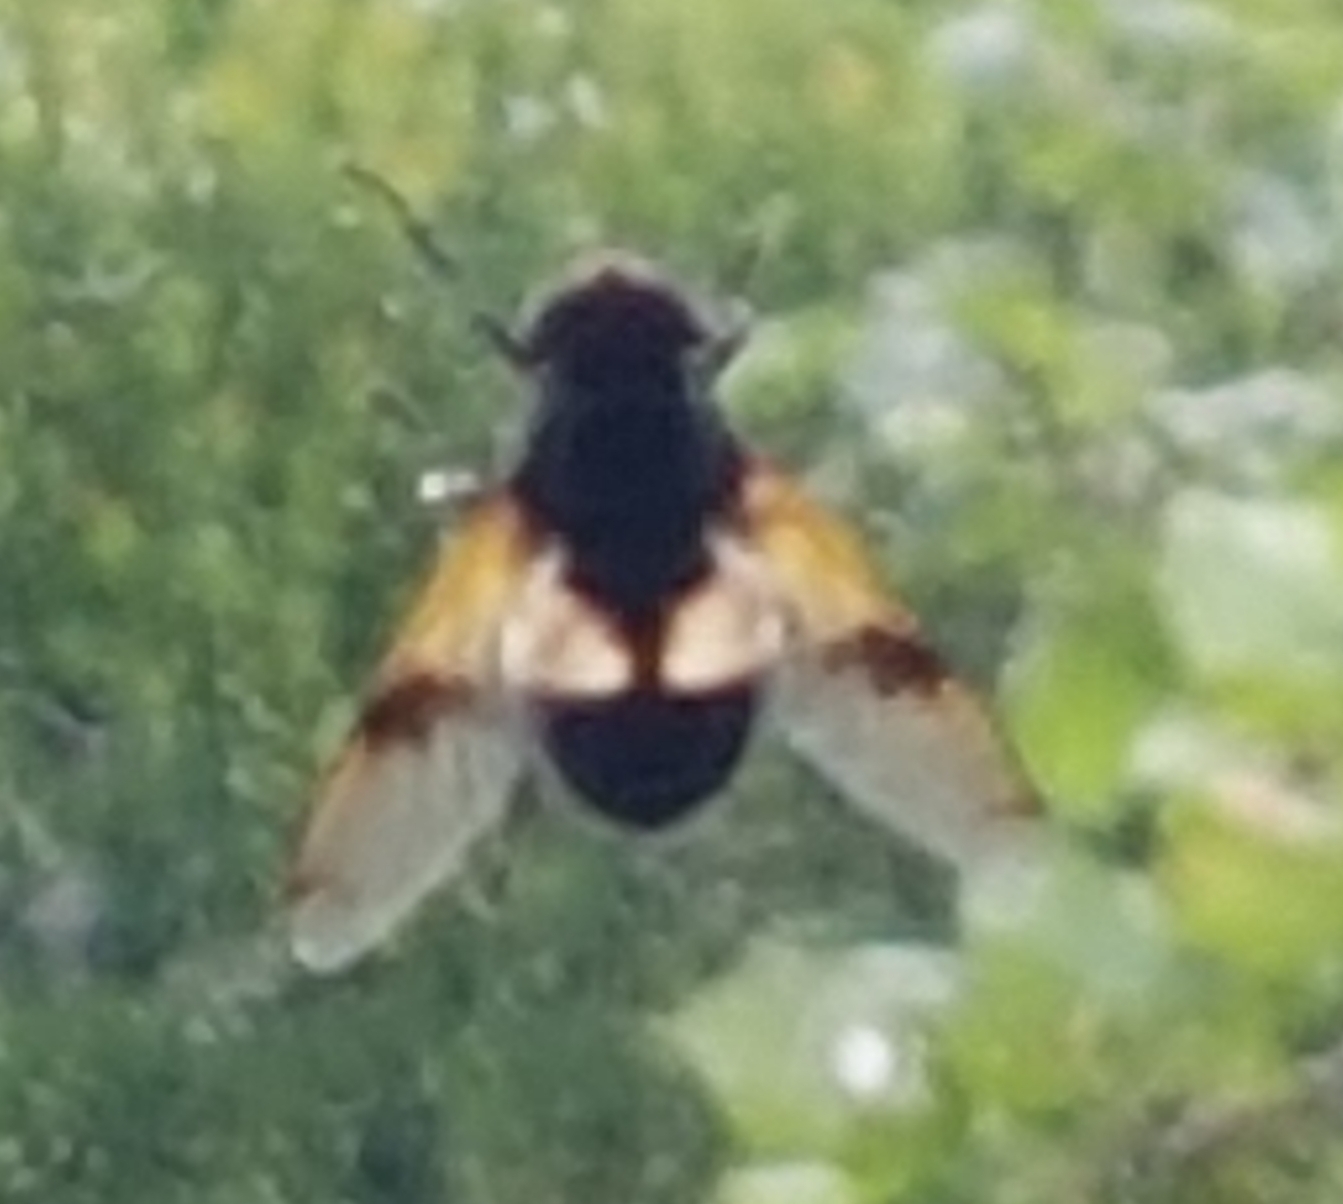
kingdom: Animalia
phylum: Arthropoda
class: Insecta
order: Diptera
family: Syrphidae
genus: Volucella
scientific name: Volucella pellucens
